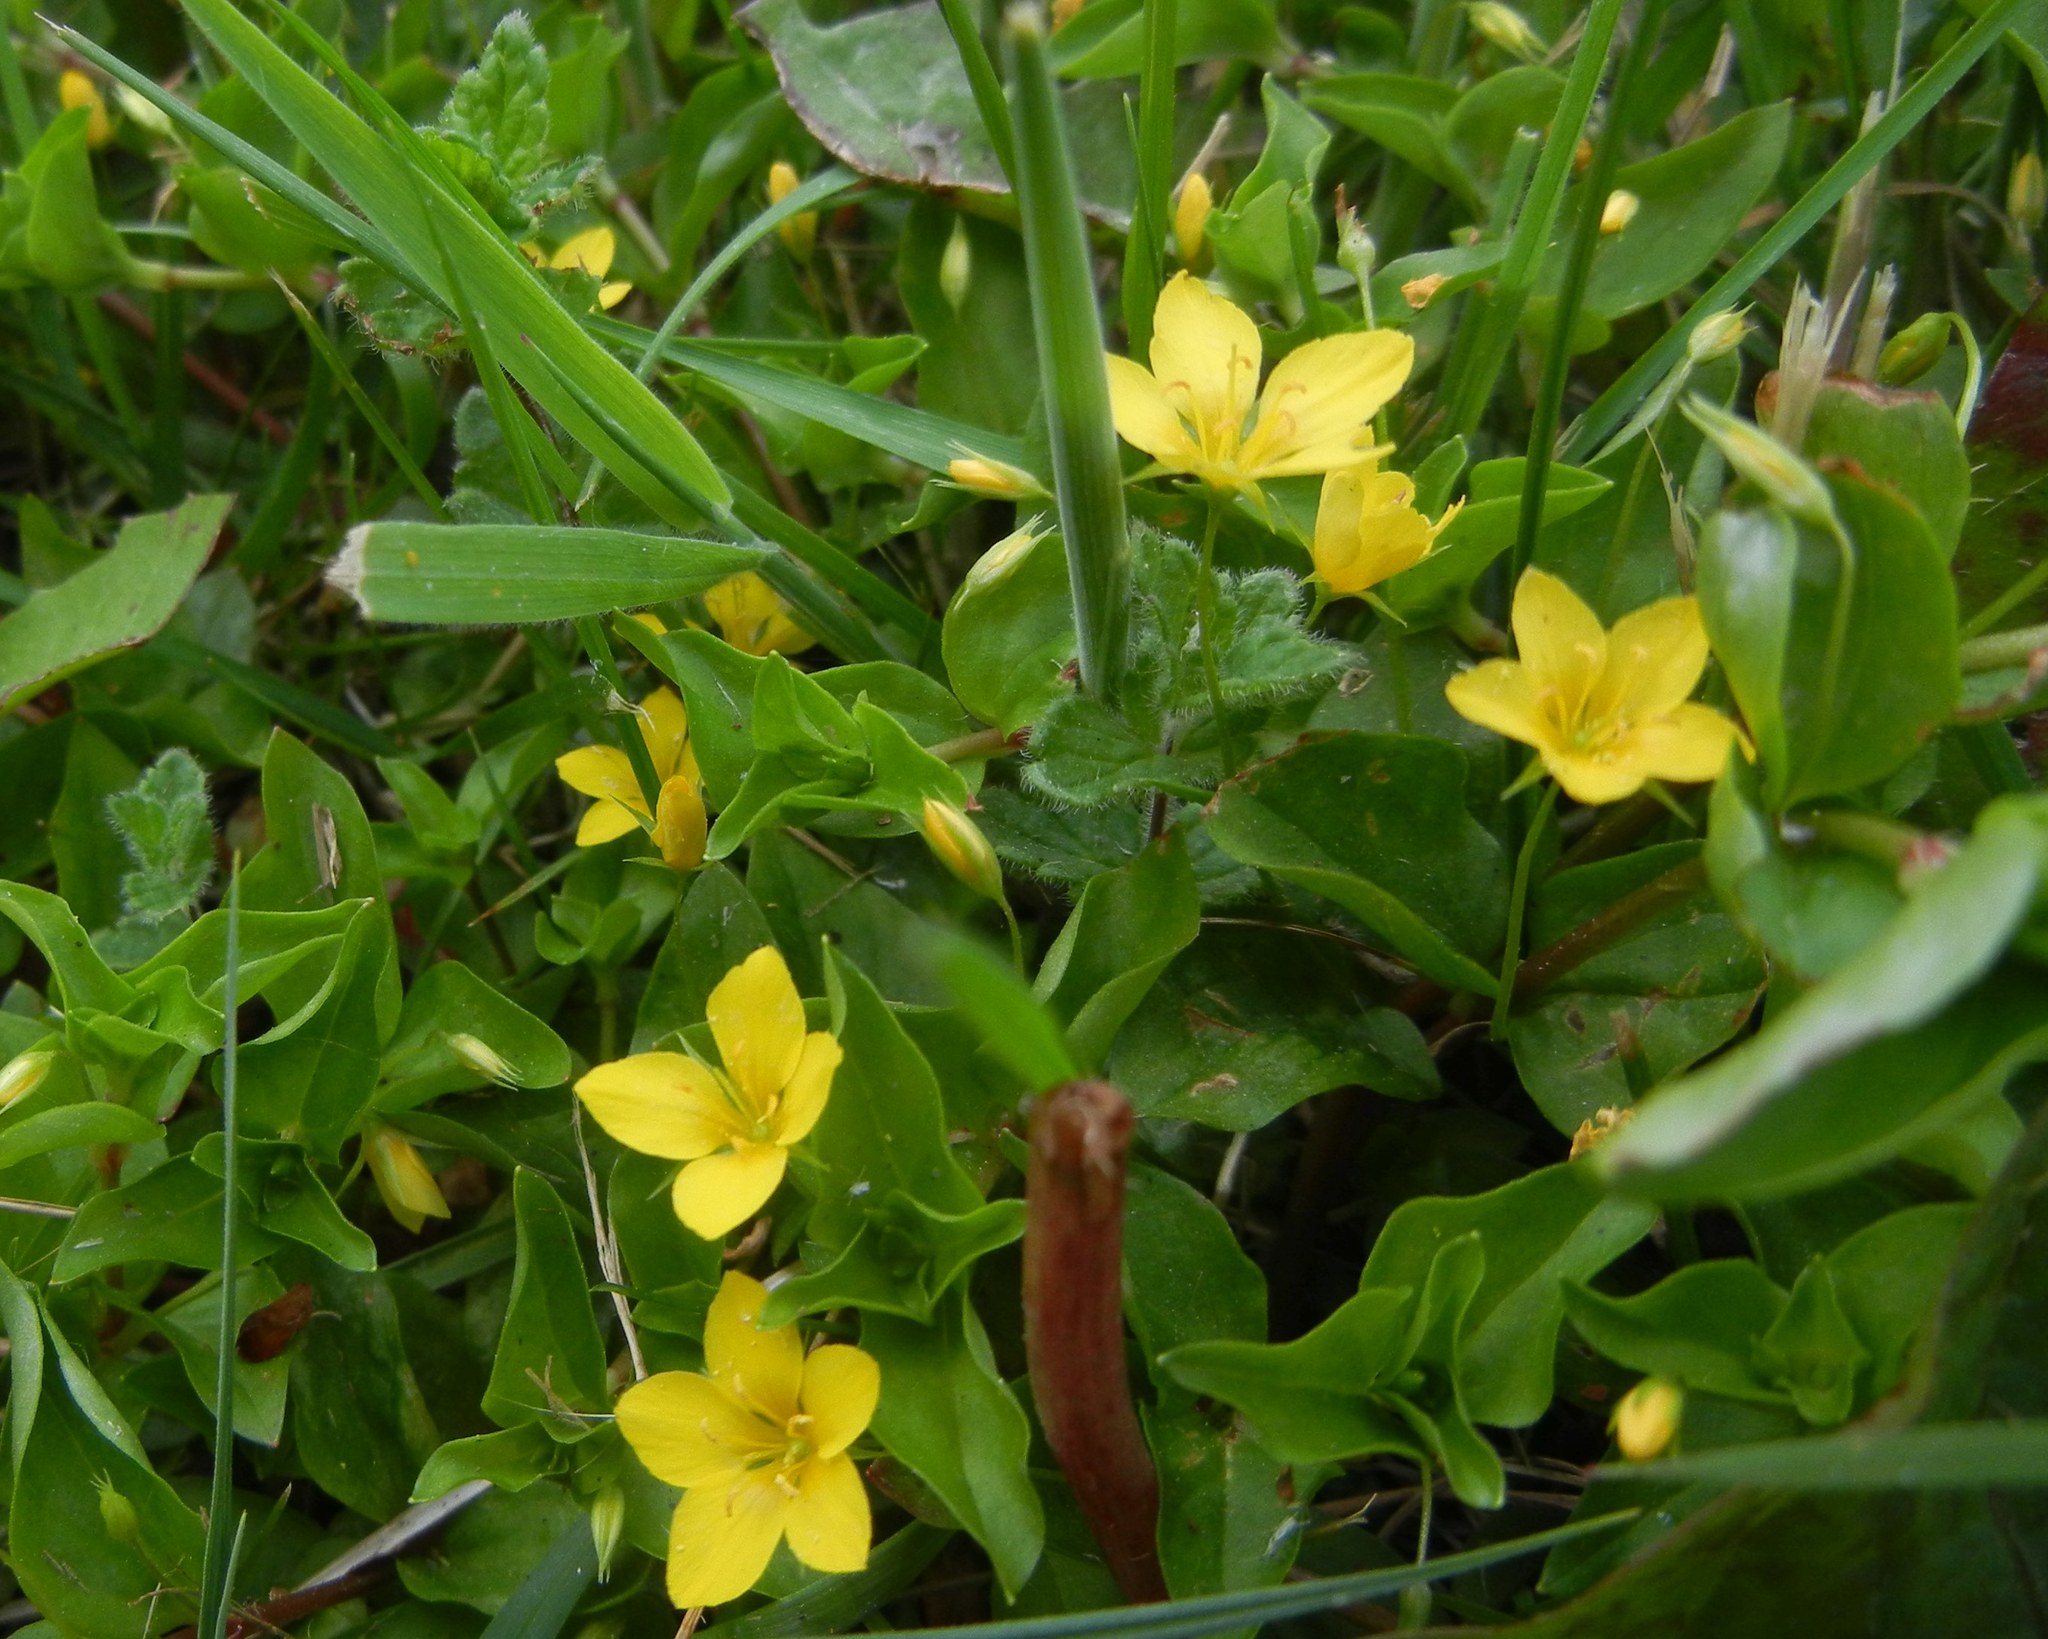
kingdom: Plantae
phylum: Tracheophyta
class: Magnoliopsida
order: Ericales
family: Primulaceae
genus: Lysimachia
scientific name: Lysimachia nemorum
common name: Yellow pimpernel
